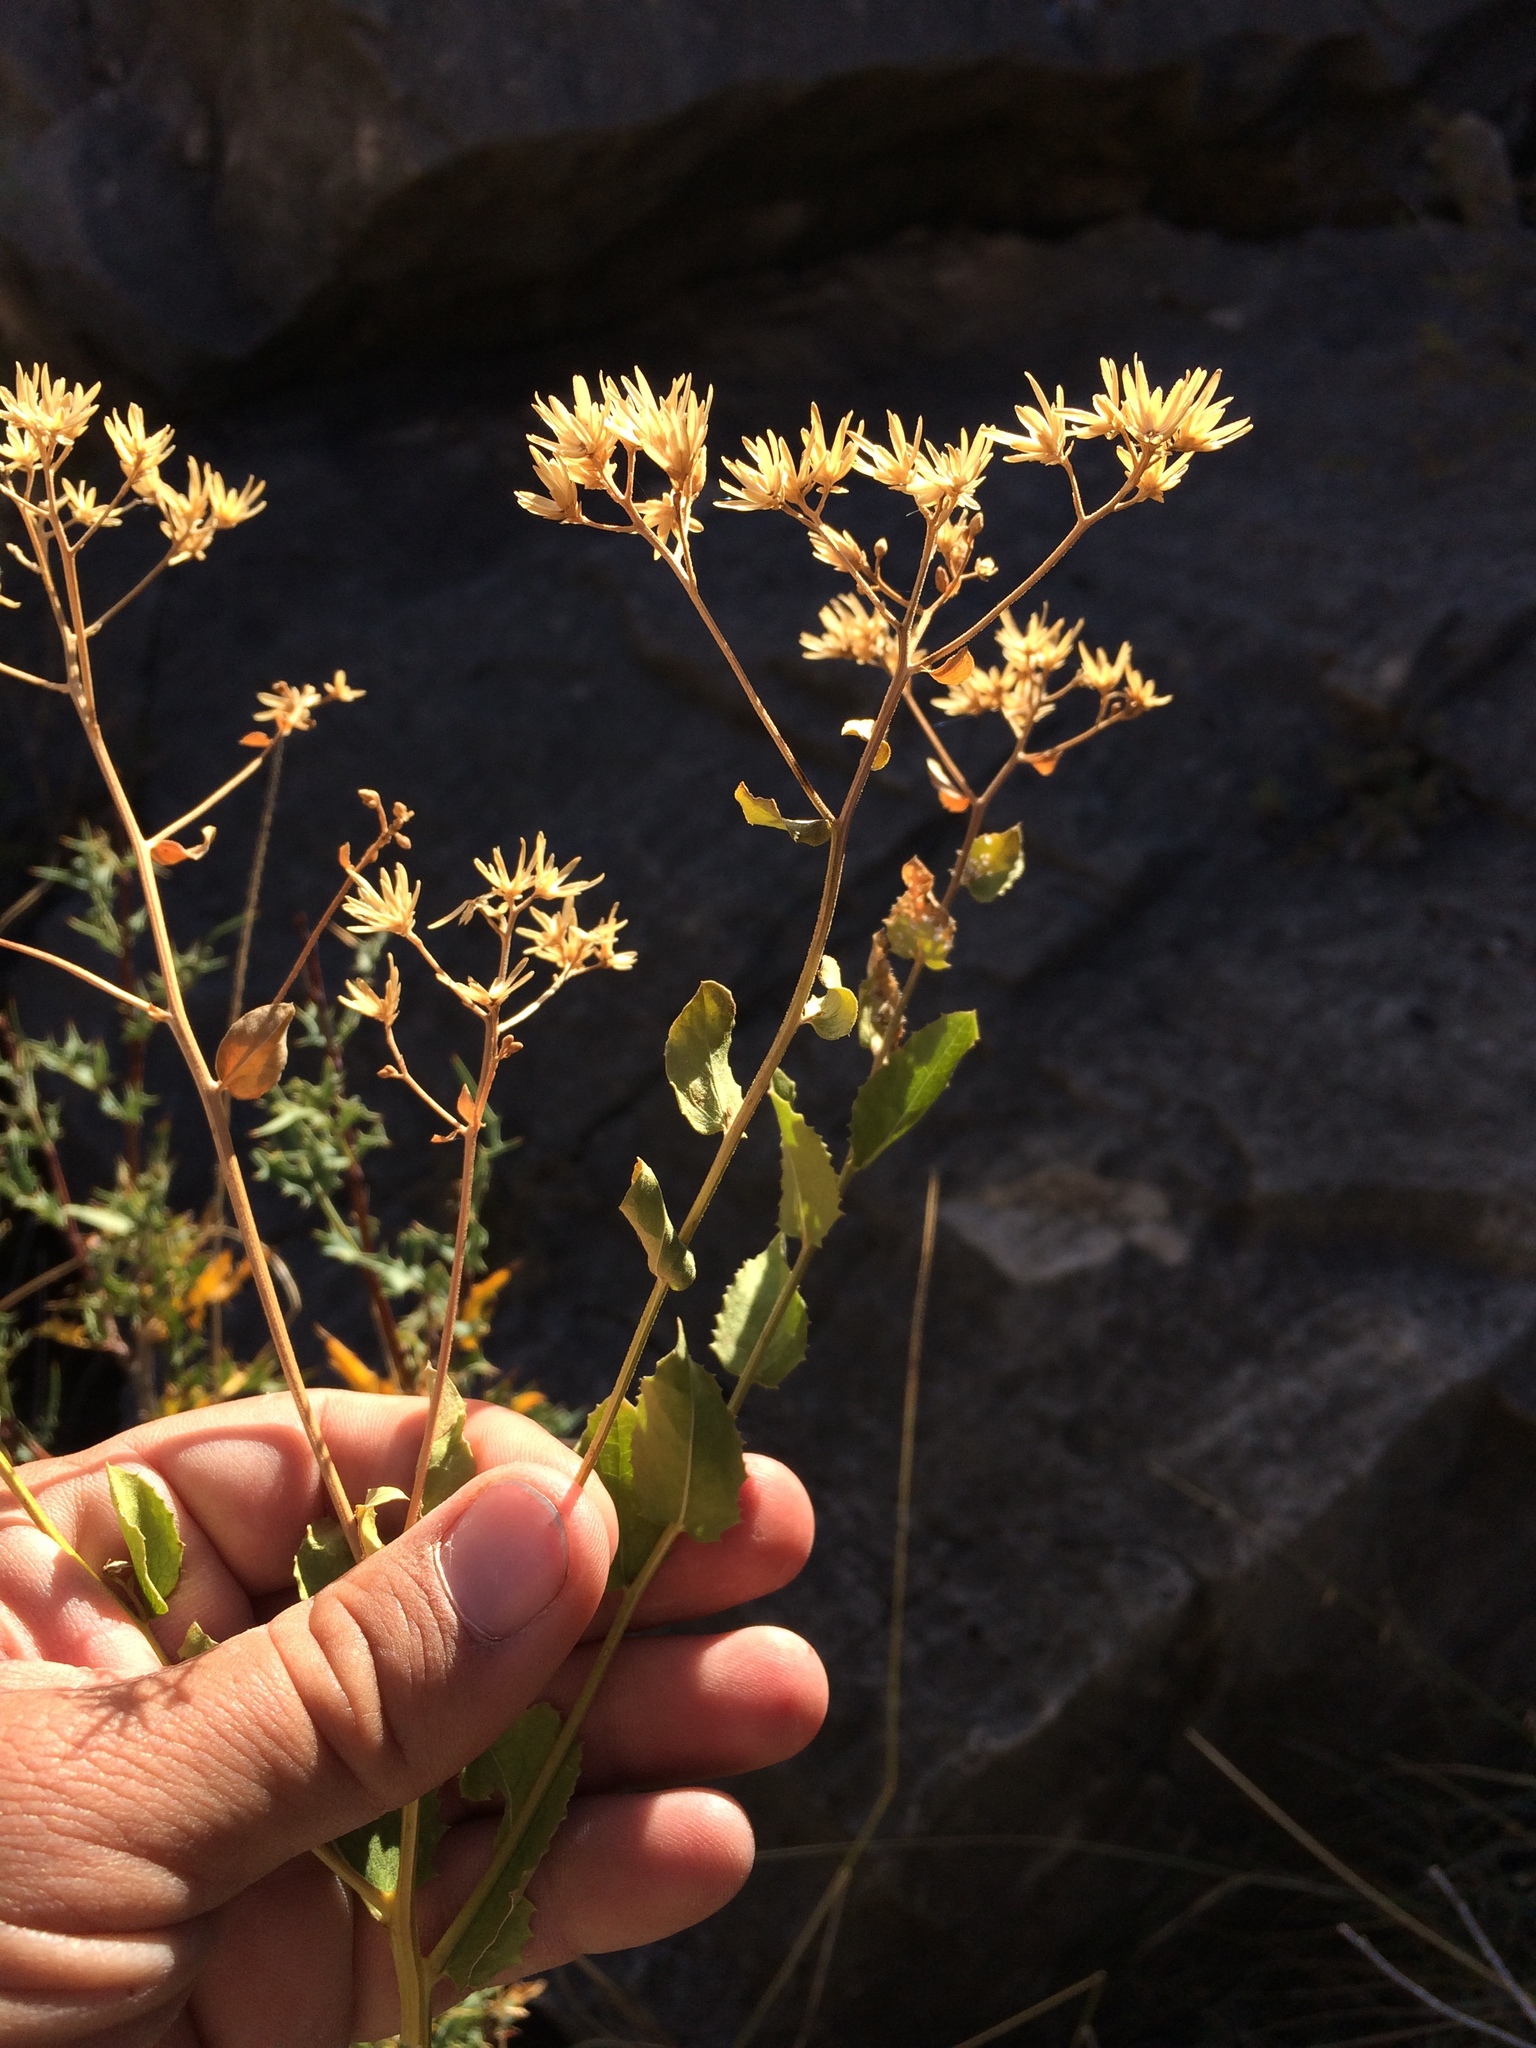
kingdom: Plantae
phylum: Tracheophyta
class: Magnoliopsida
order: Asterales
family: Asteraceae
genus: Acourtia
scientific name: Acourtia wrightii
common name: Brownfoot
